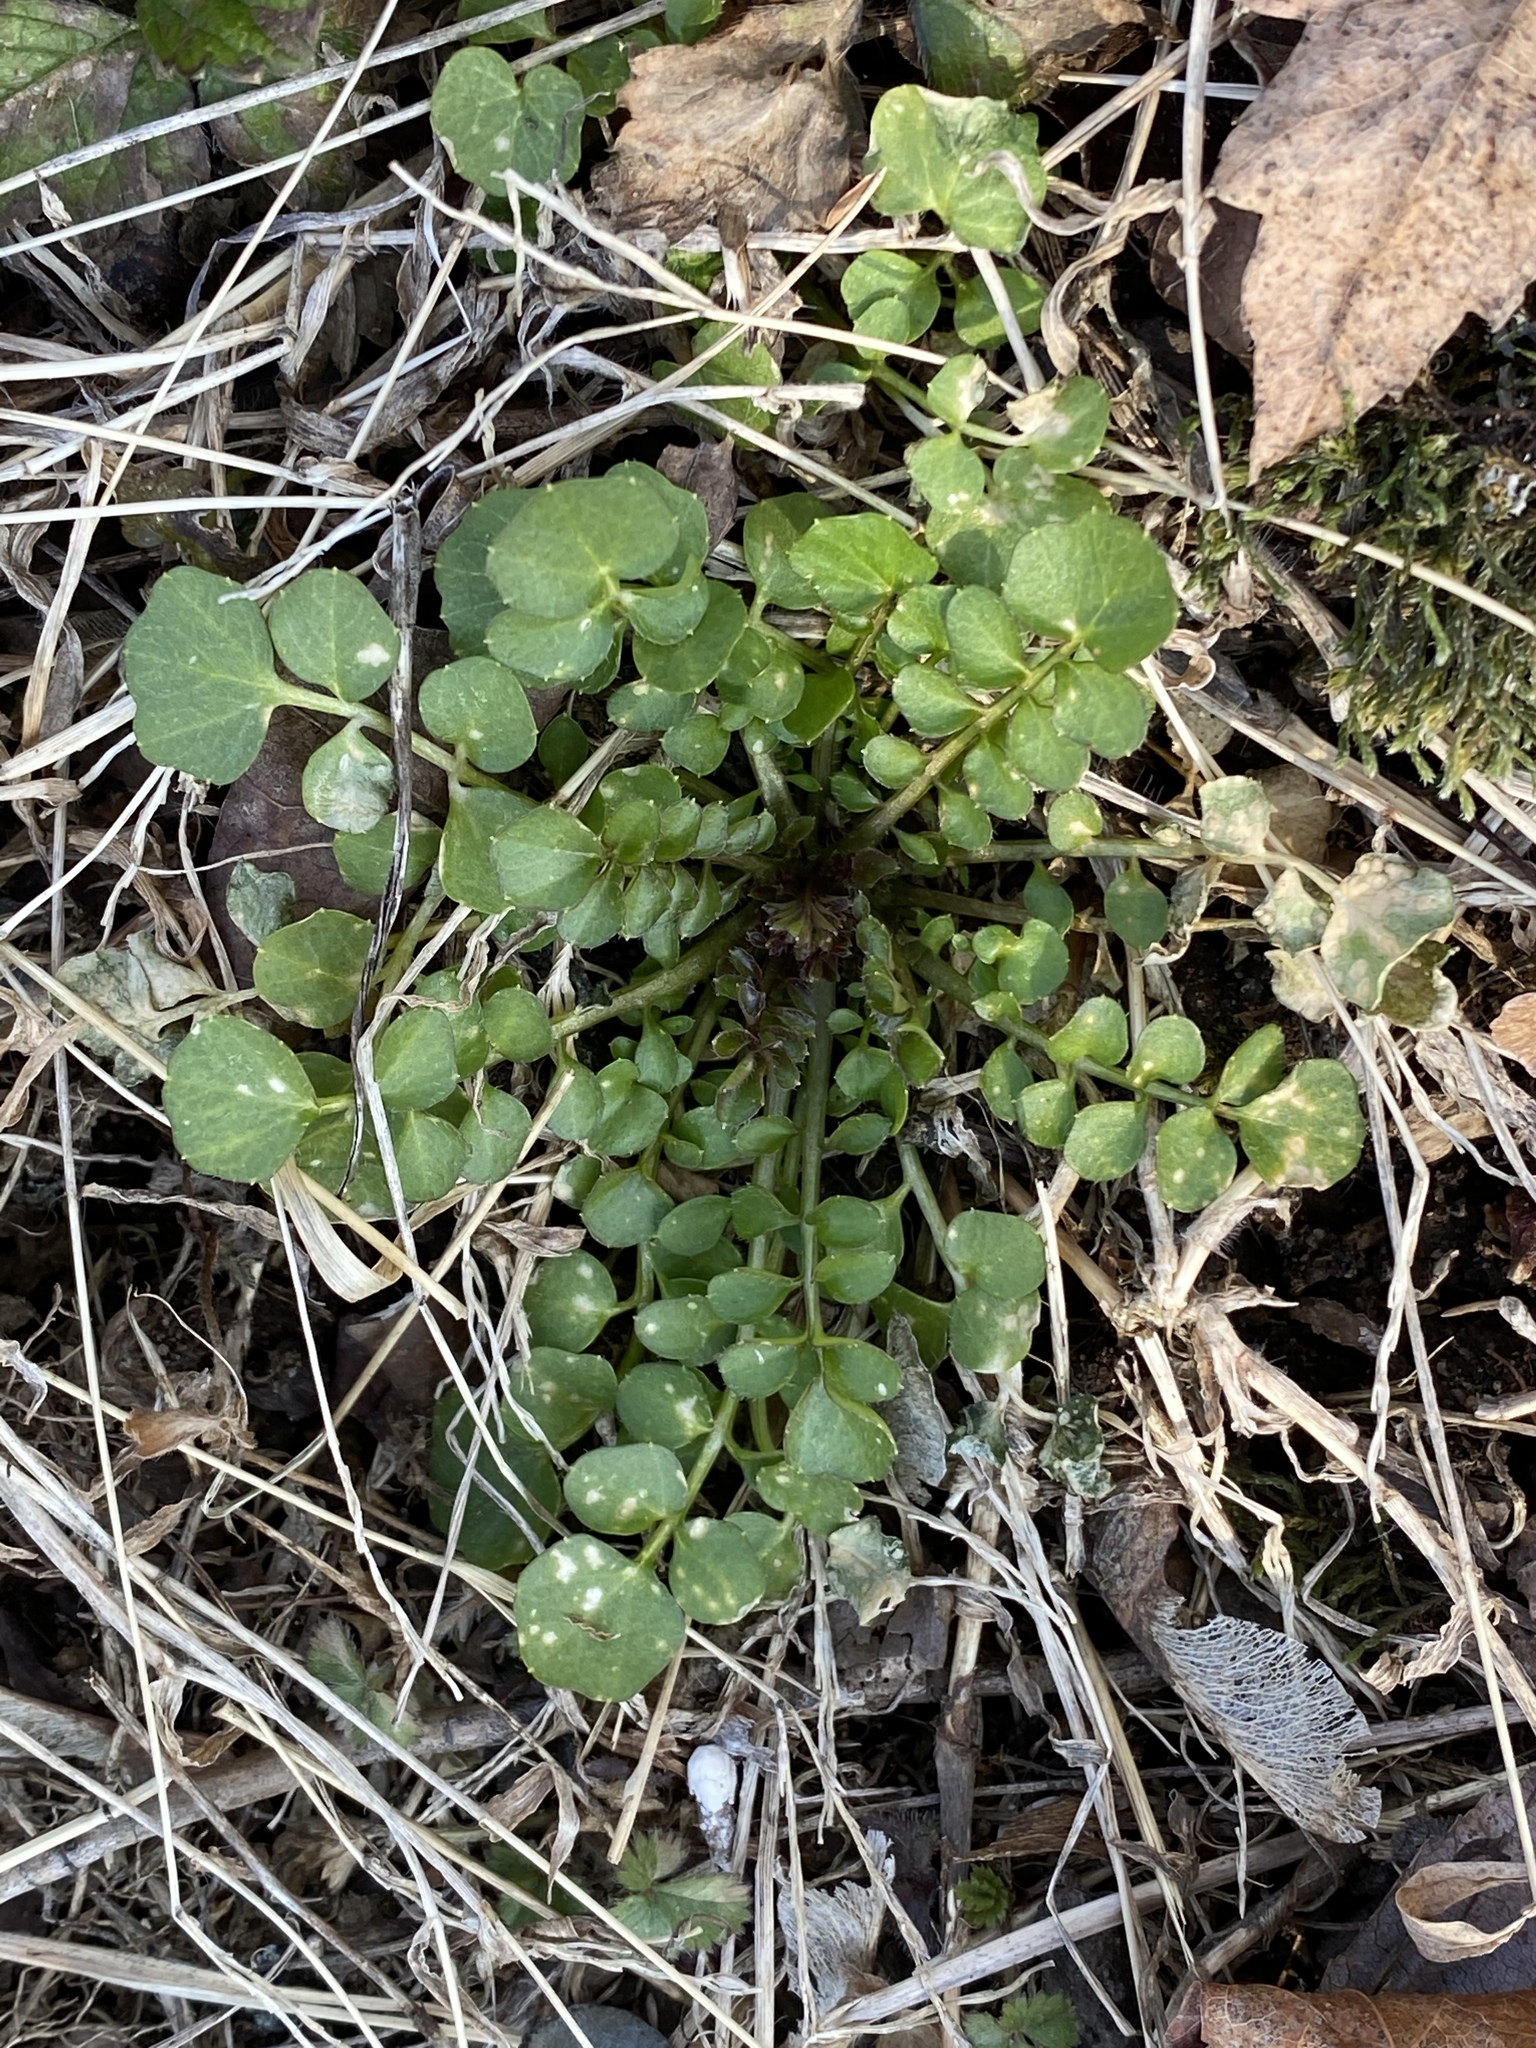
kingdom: Plantae
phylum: Tracheophyta
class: Magnoliopsida
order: Brassicales
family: Brassicaceae
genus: Cardamine
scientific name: Cardamine hirsuta
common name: Hairy bittercress
